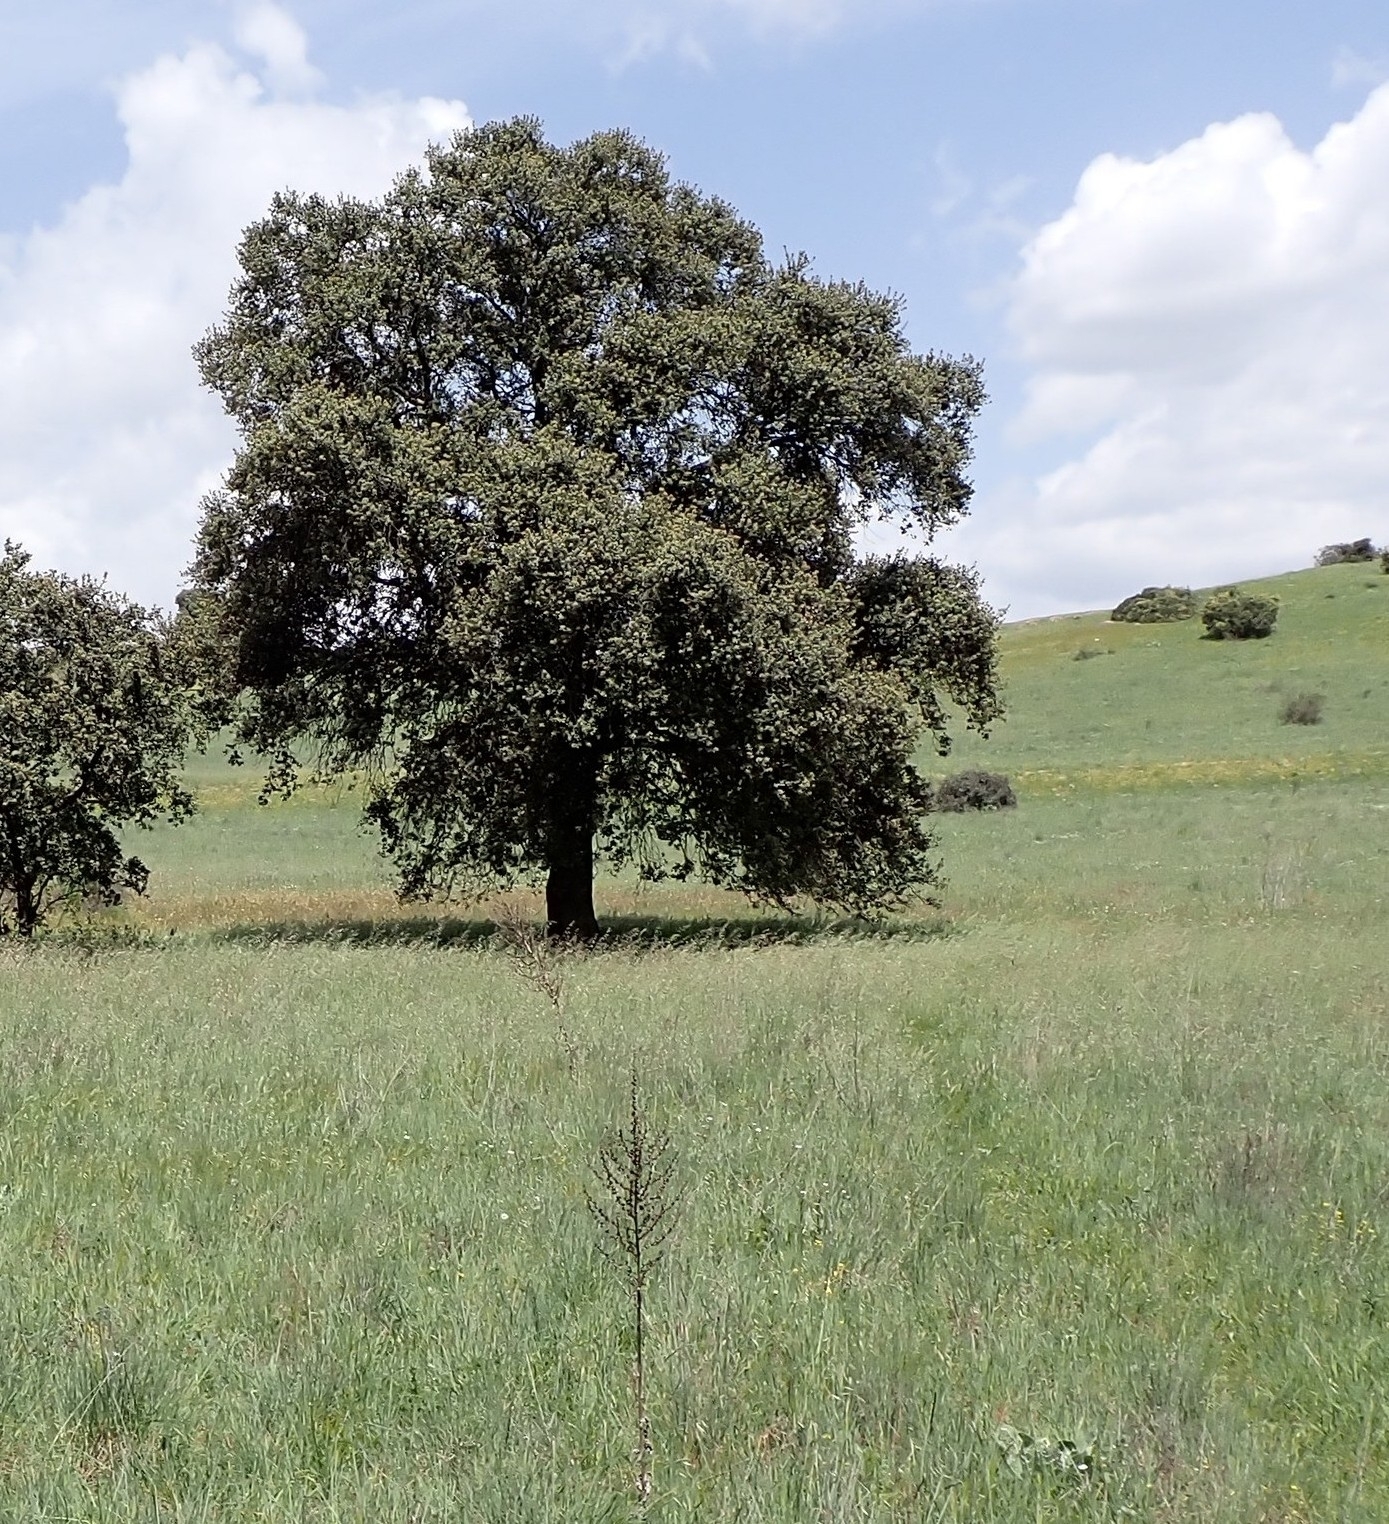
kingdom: Plantae
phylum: Tracheophyta
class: Magnoliopsida
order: Fagales
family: Fagaceae
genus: Quercus
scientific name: Quercus rotundifolia
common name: Holm oak
